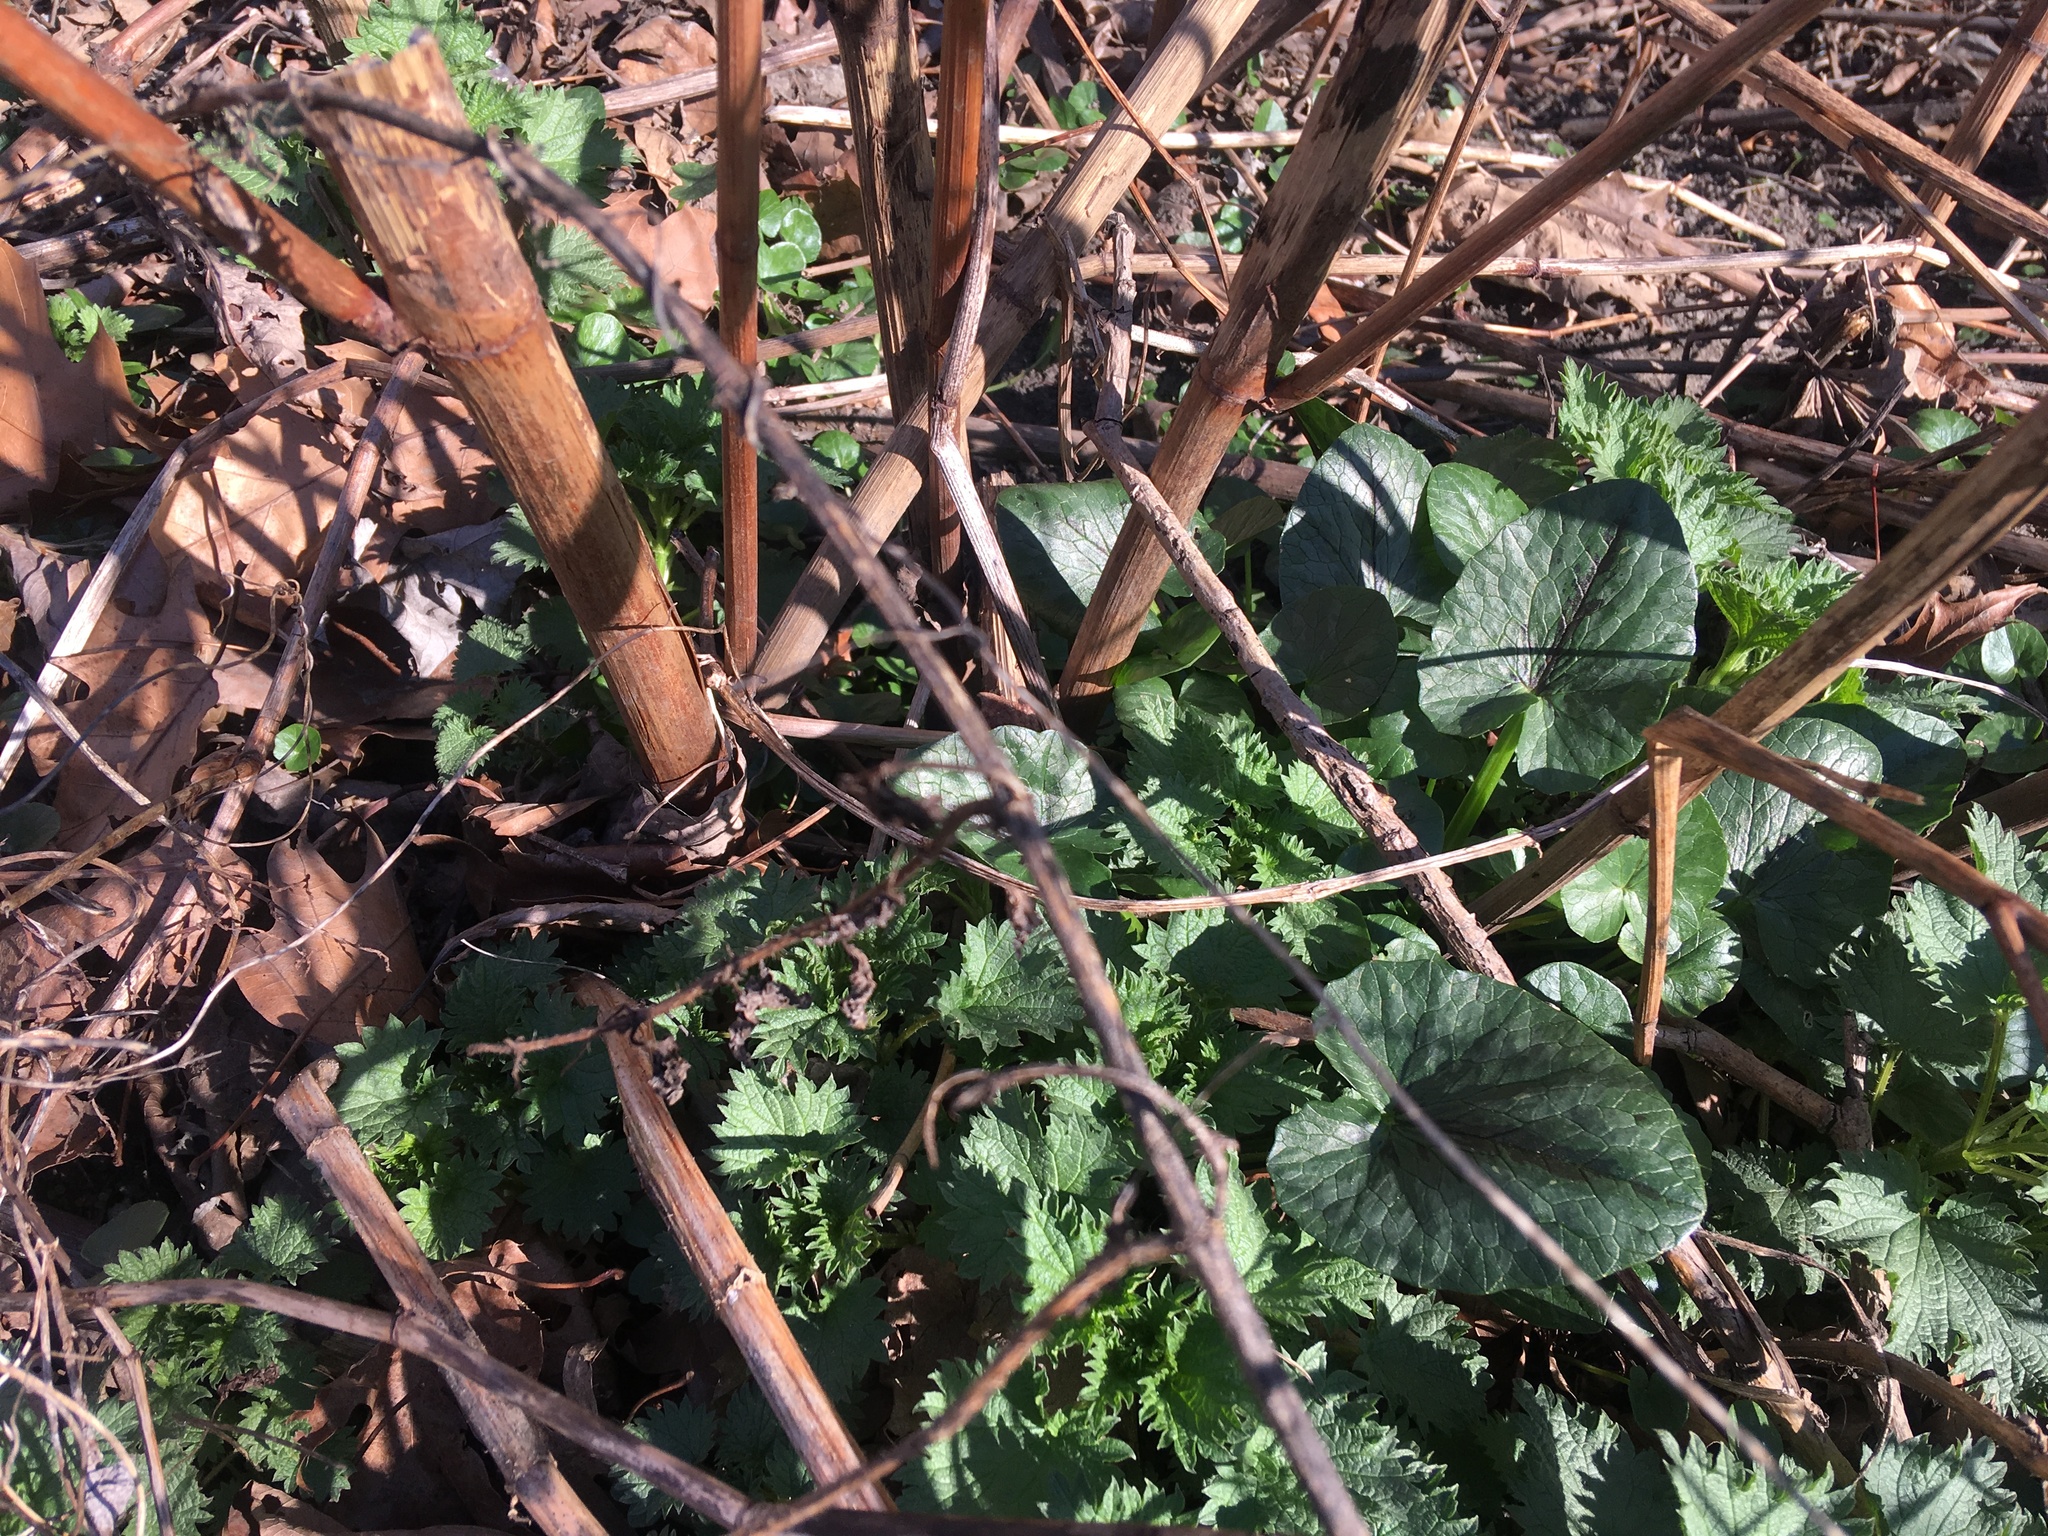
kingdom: Plantae
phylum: Tracheophyta
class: Magnoliopsida
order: Ranunculales
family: Ranunculaceae
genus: Ficaria
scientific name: Ficaria verna
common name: Lesser celandine
